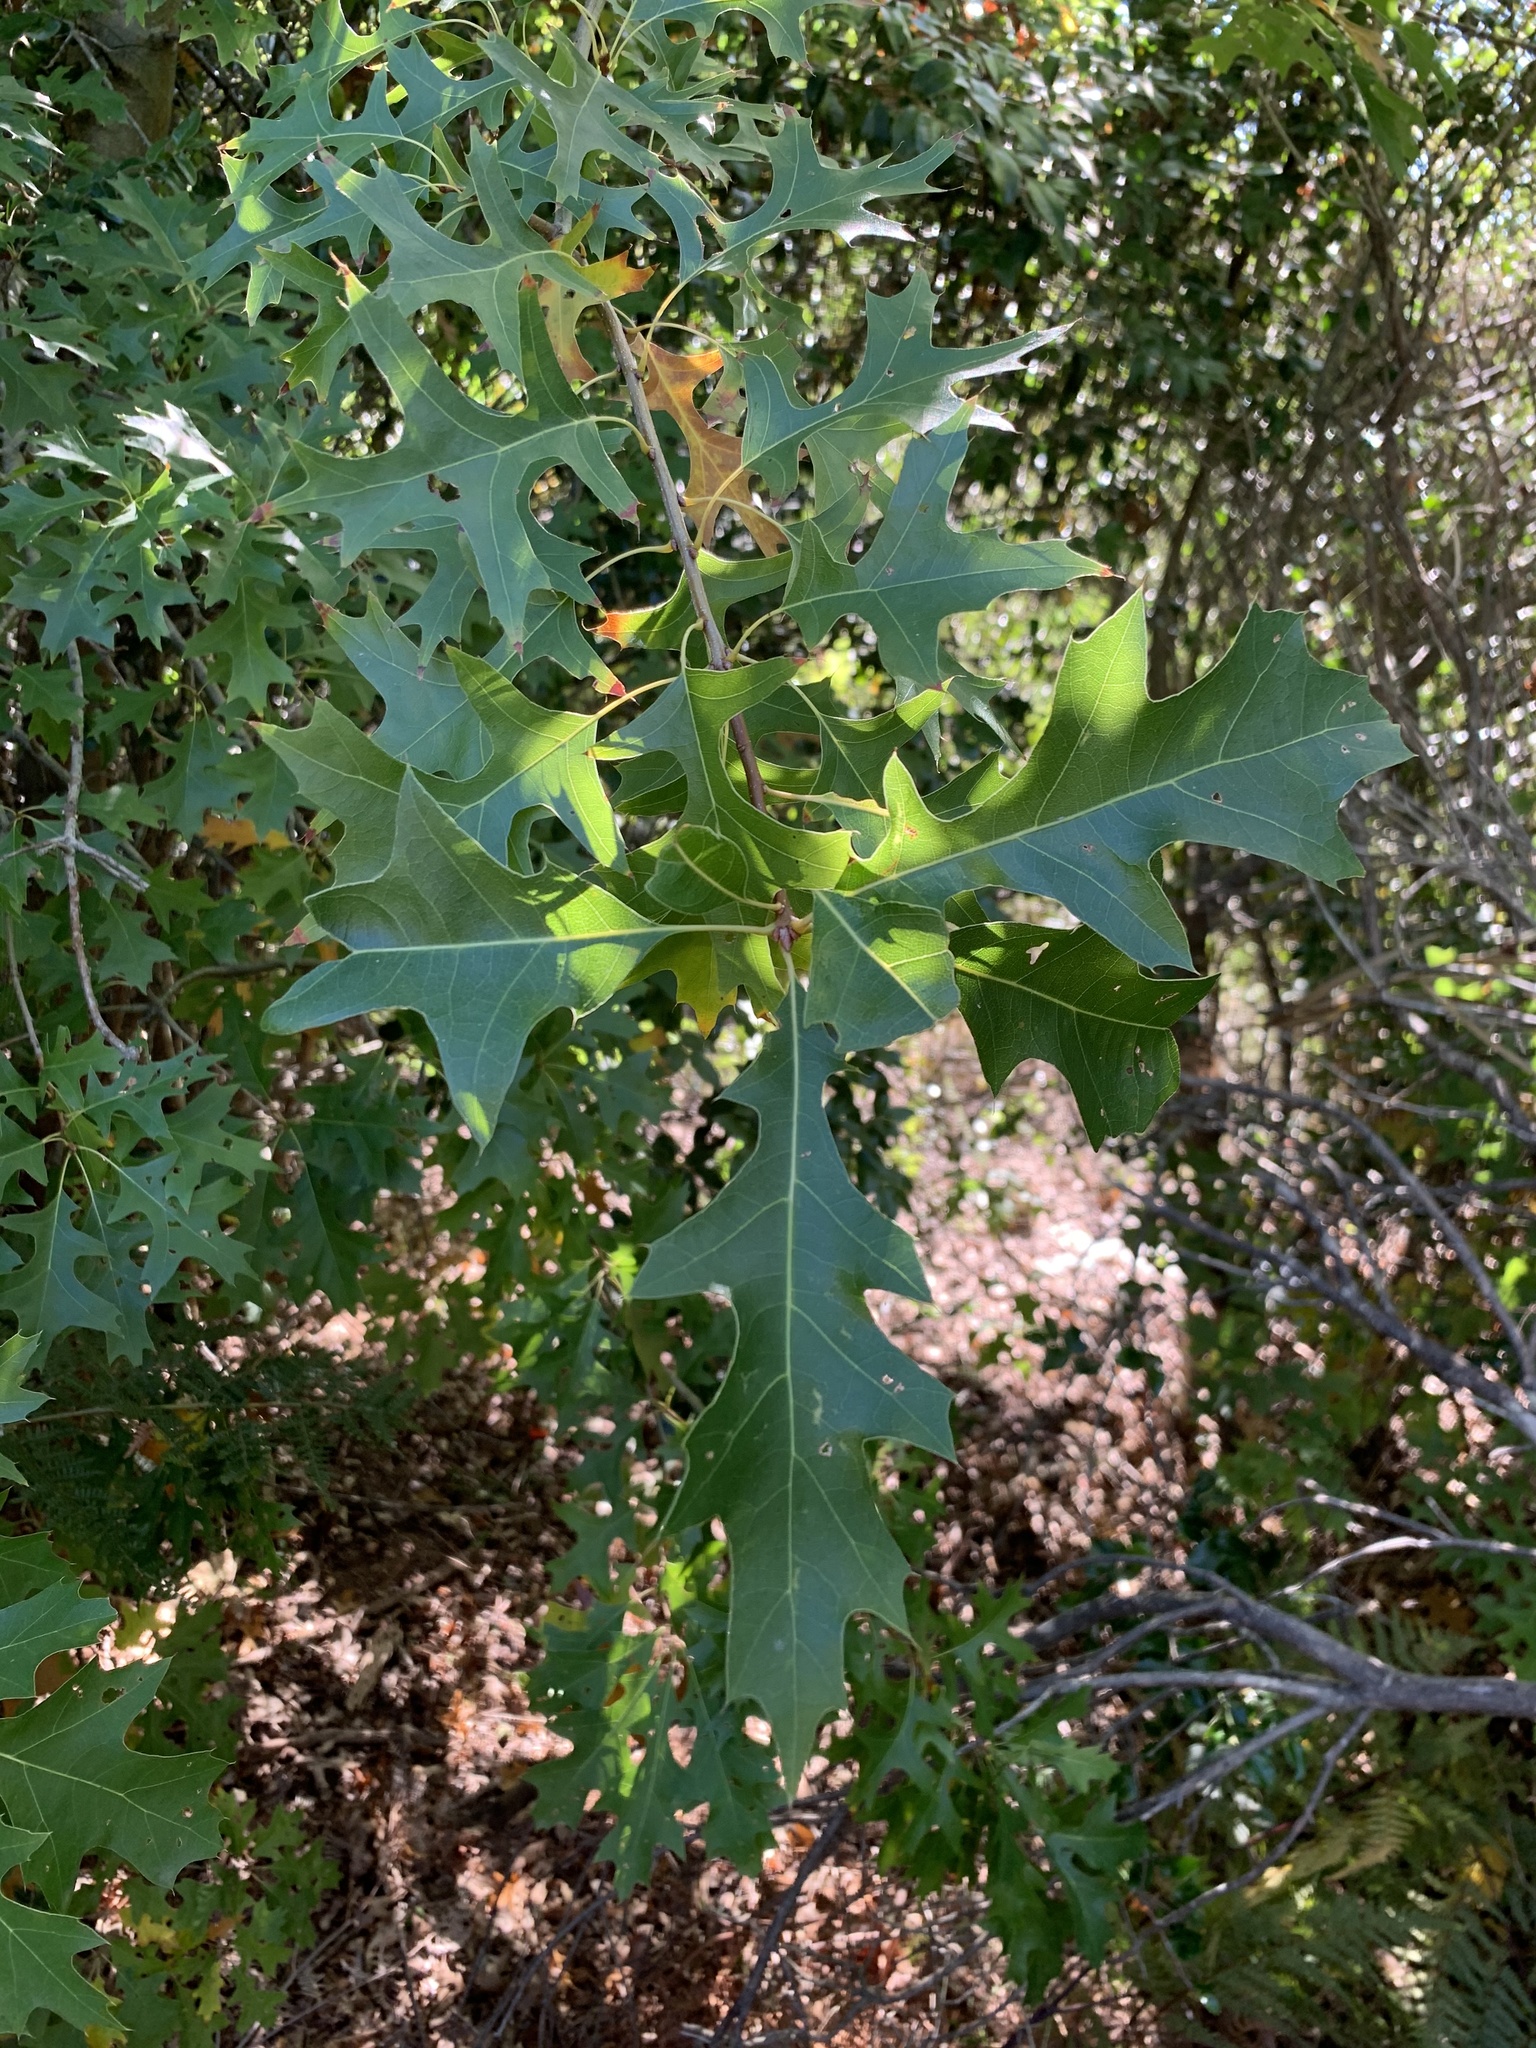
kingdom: Plantae
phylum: Tracheophyta
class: Magnoliopsida
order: Fagales
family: Fagaceae
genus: Quercus
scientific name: Quercus palustris
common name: Pin oak
